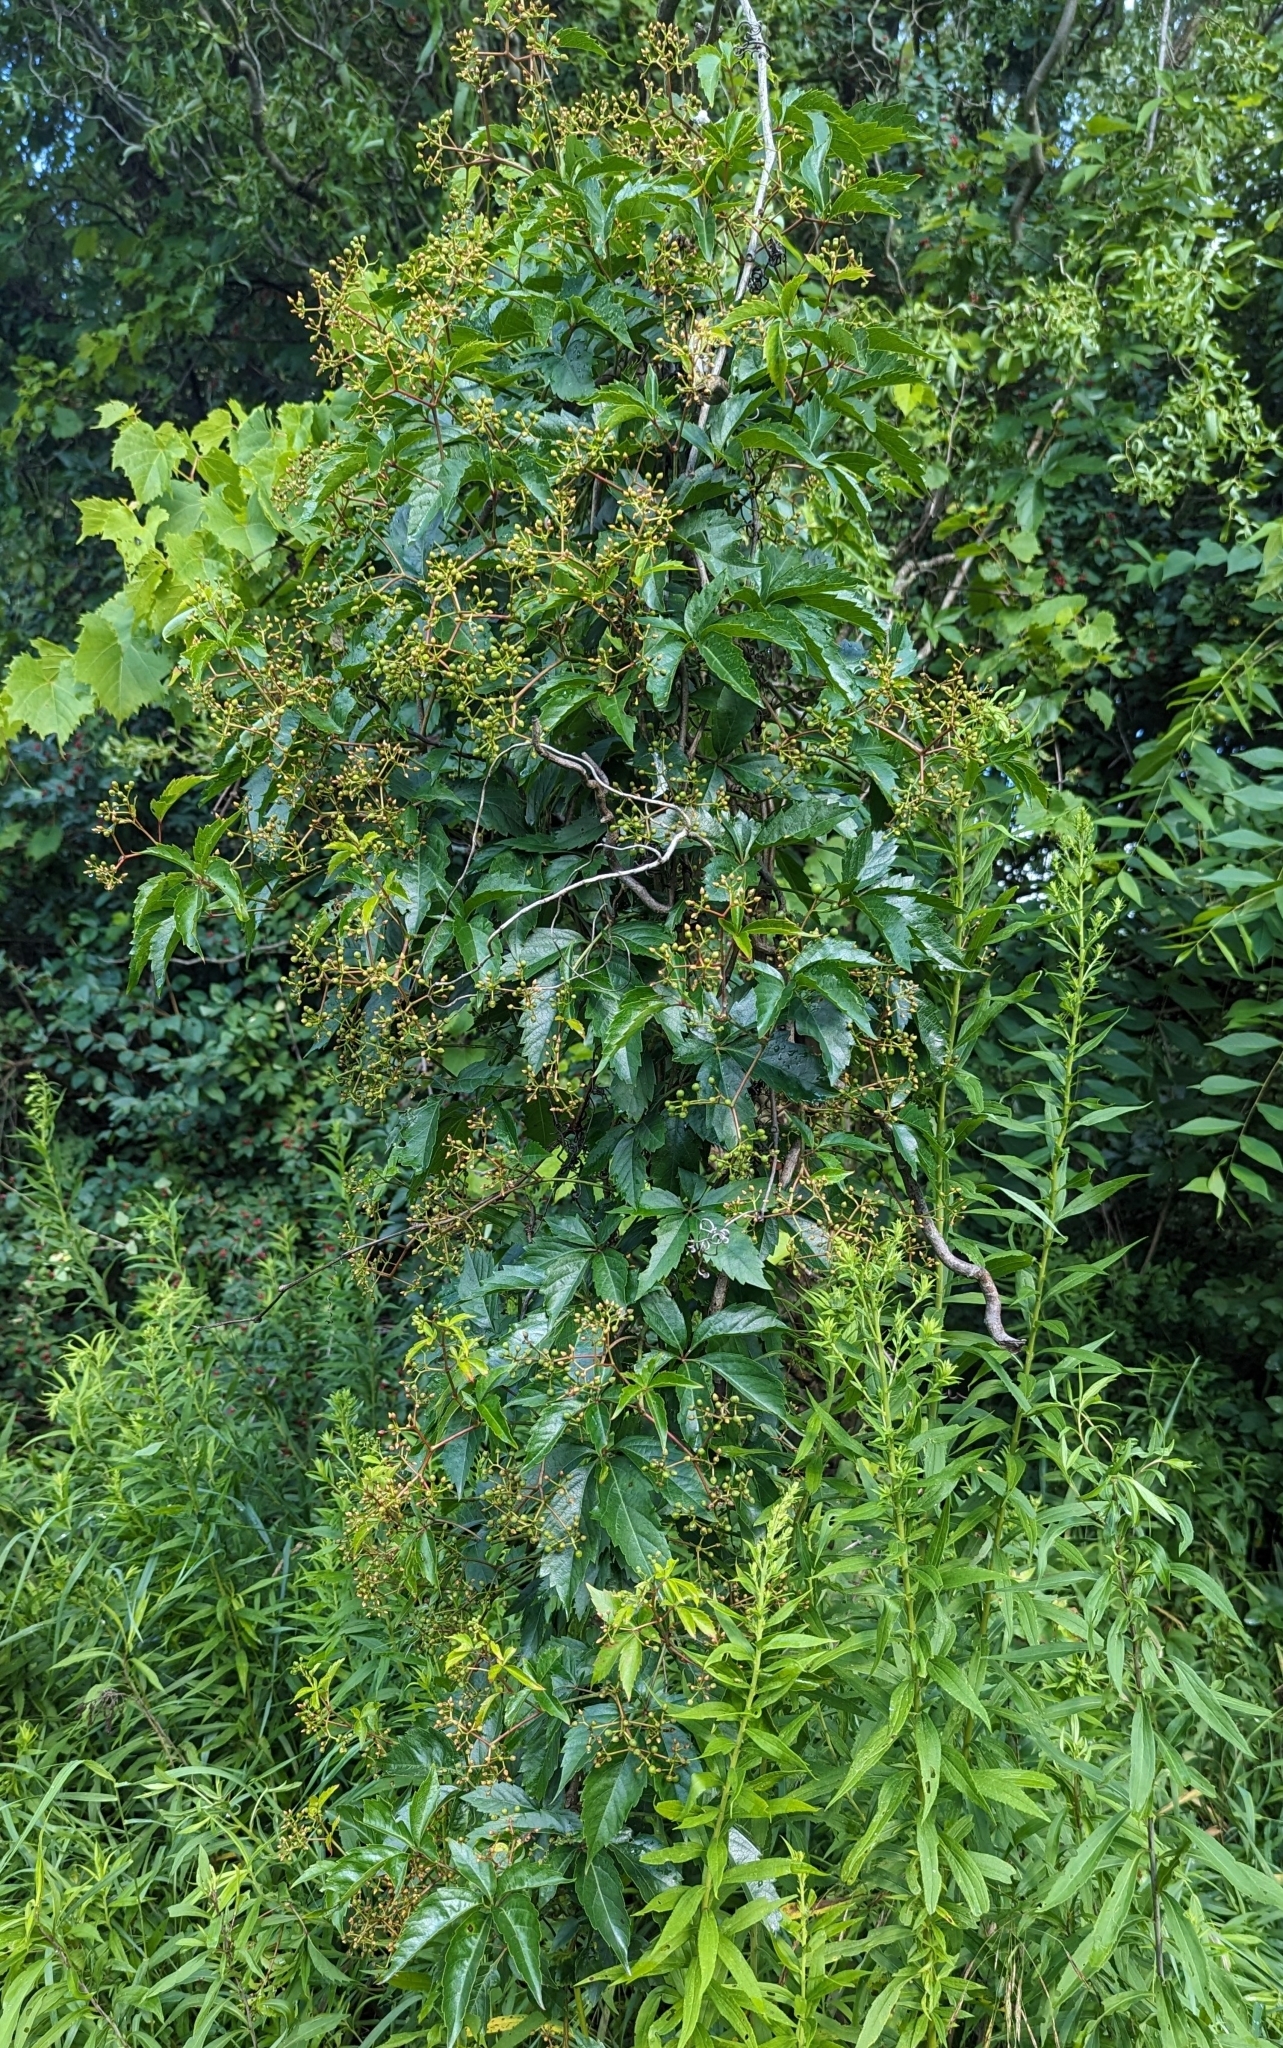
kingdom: Plantae
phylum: Tracheophyta
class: Magnoliopsida
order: Vitales
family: Vitaceae
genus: Parthenocissus
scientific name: Parthenocissus quinquefolia
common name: Virginia-creeper
